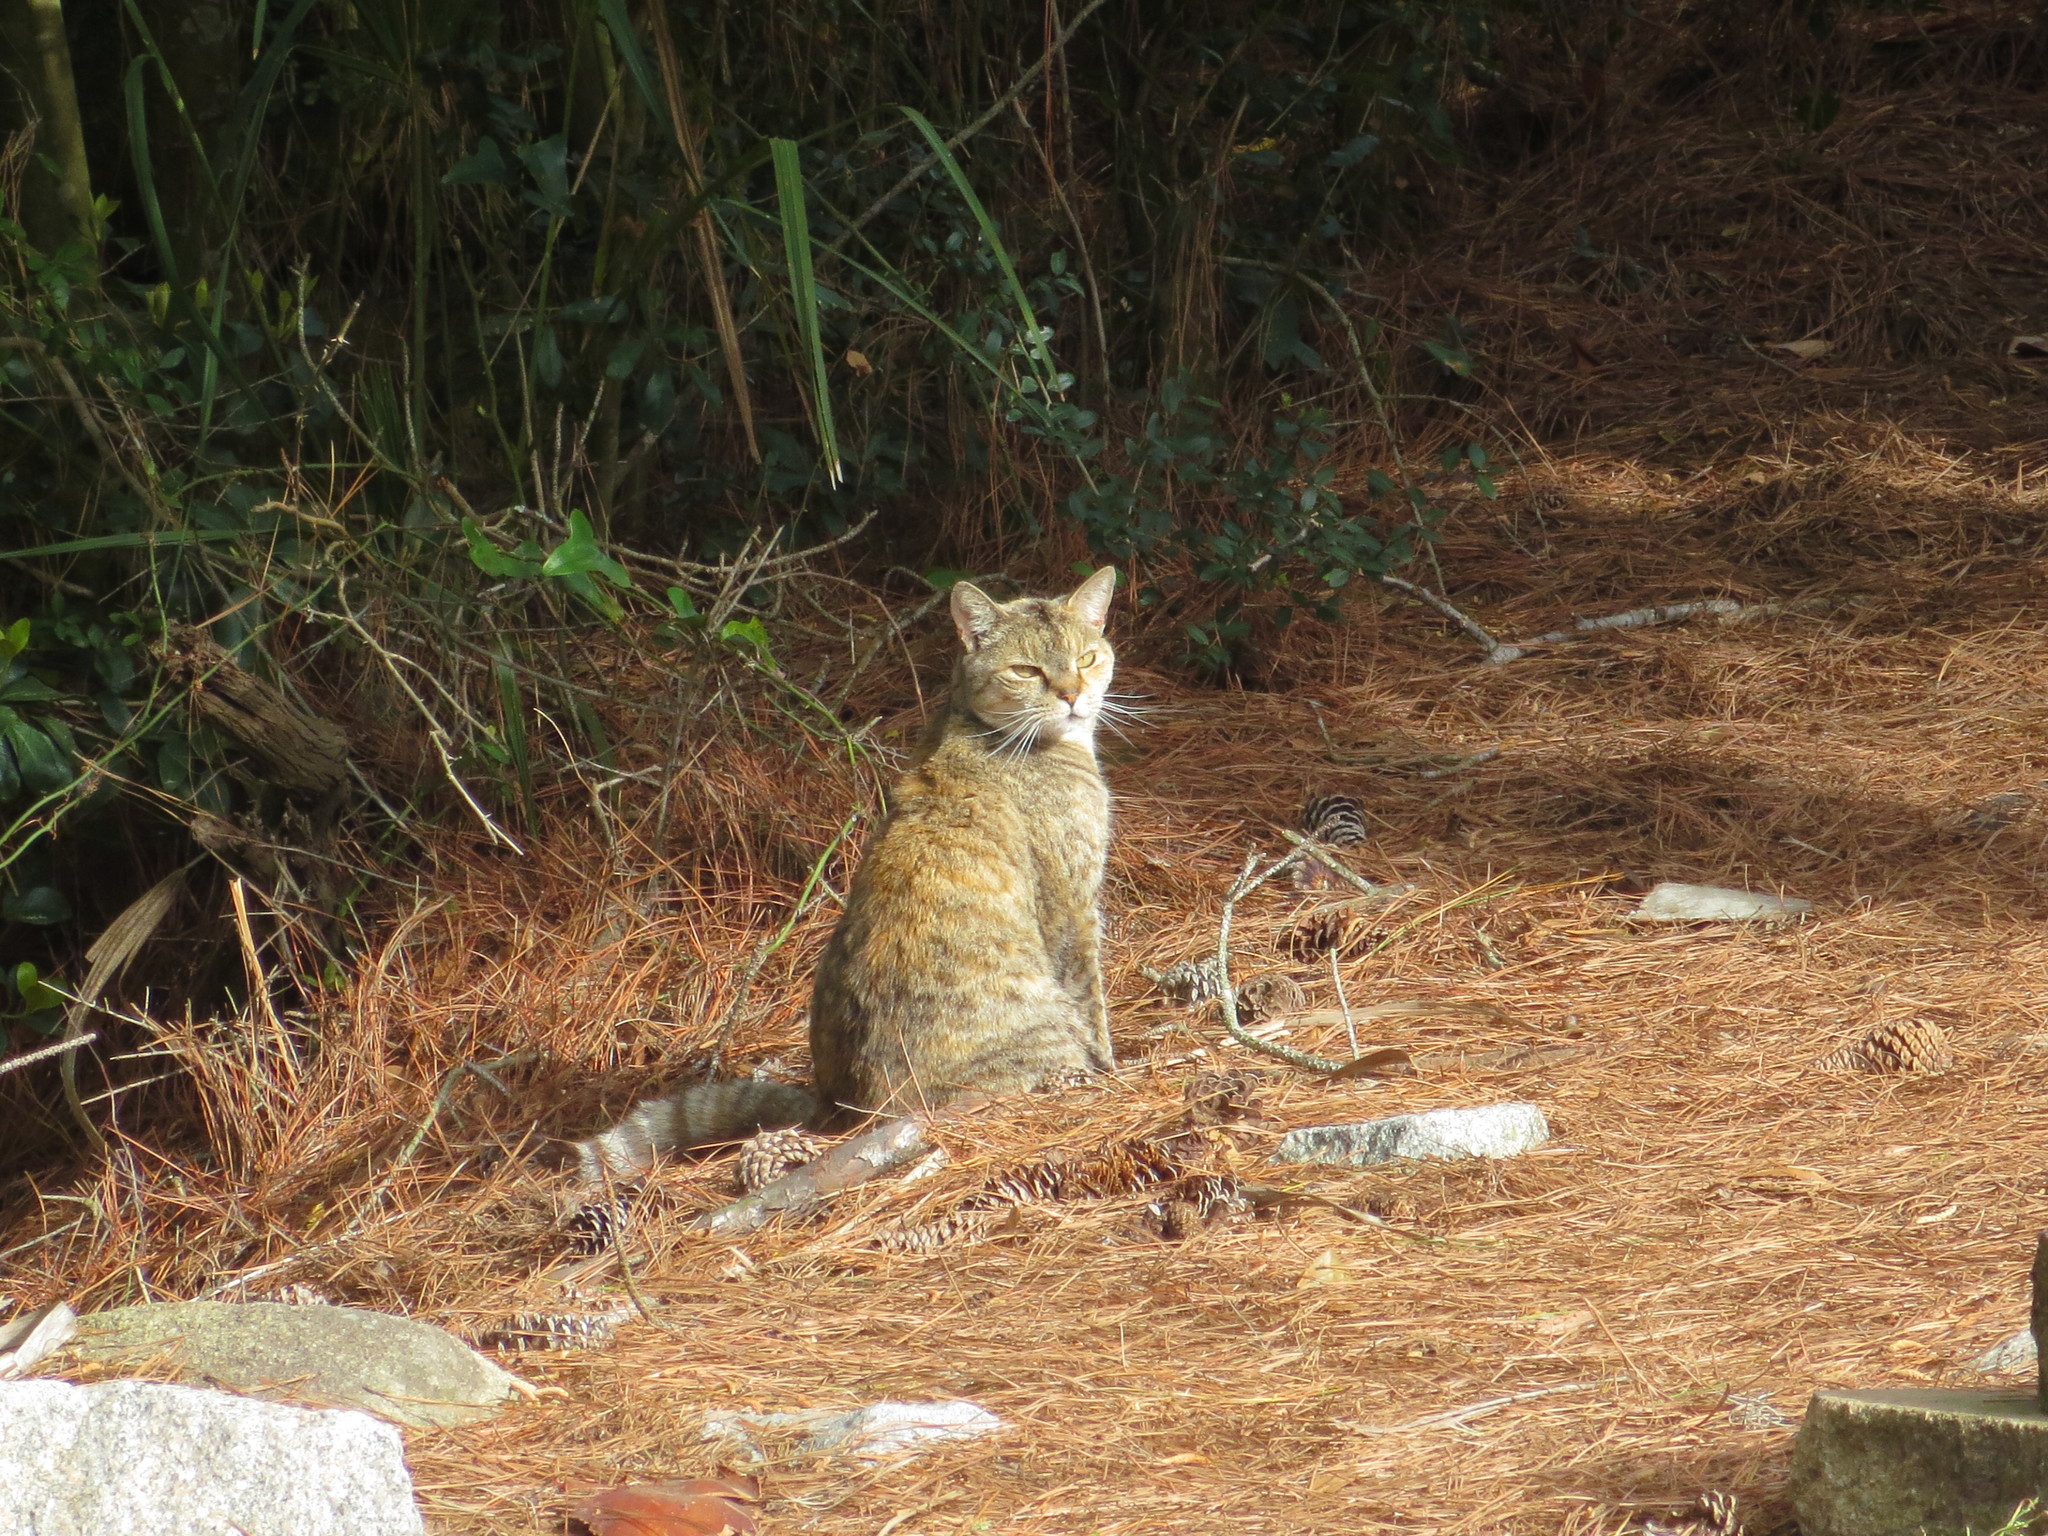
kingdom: Animalia
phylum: Chordata
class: Mammalia
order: Carnivora
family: Felidae
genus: Felis
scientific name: Felis catus
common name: Domestic cat
